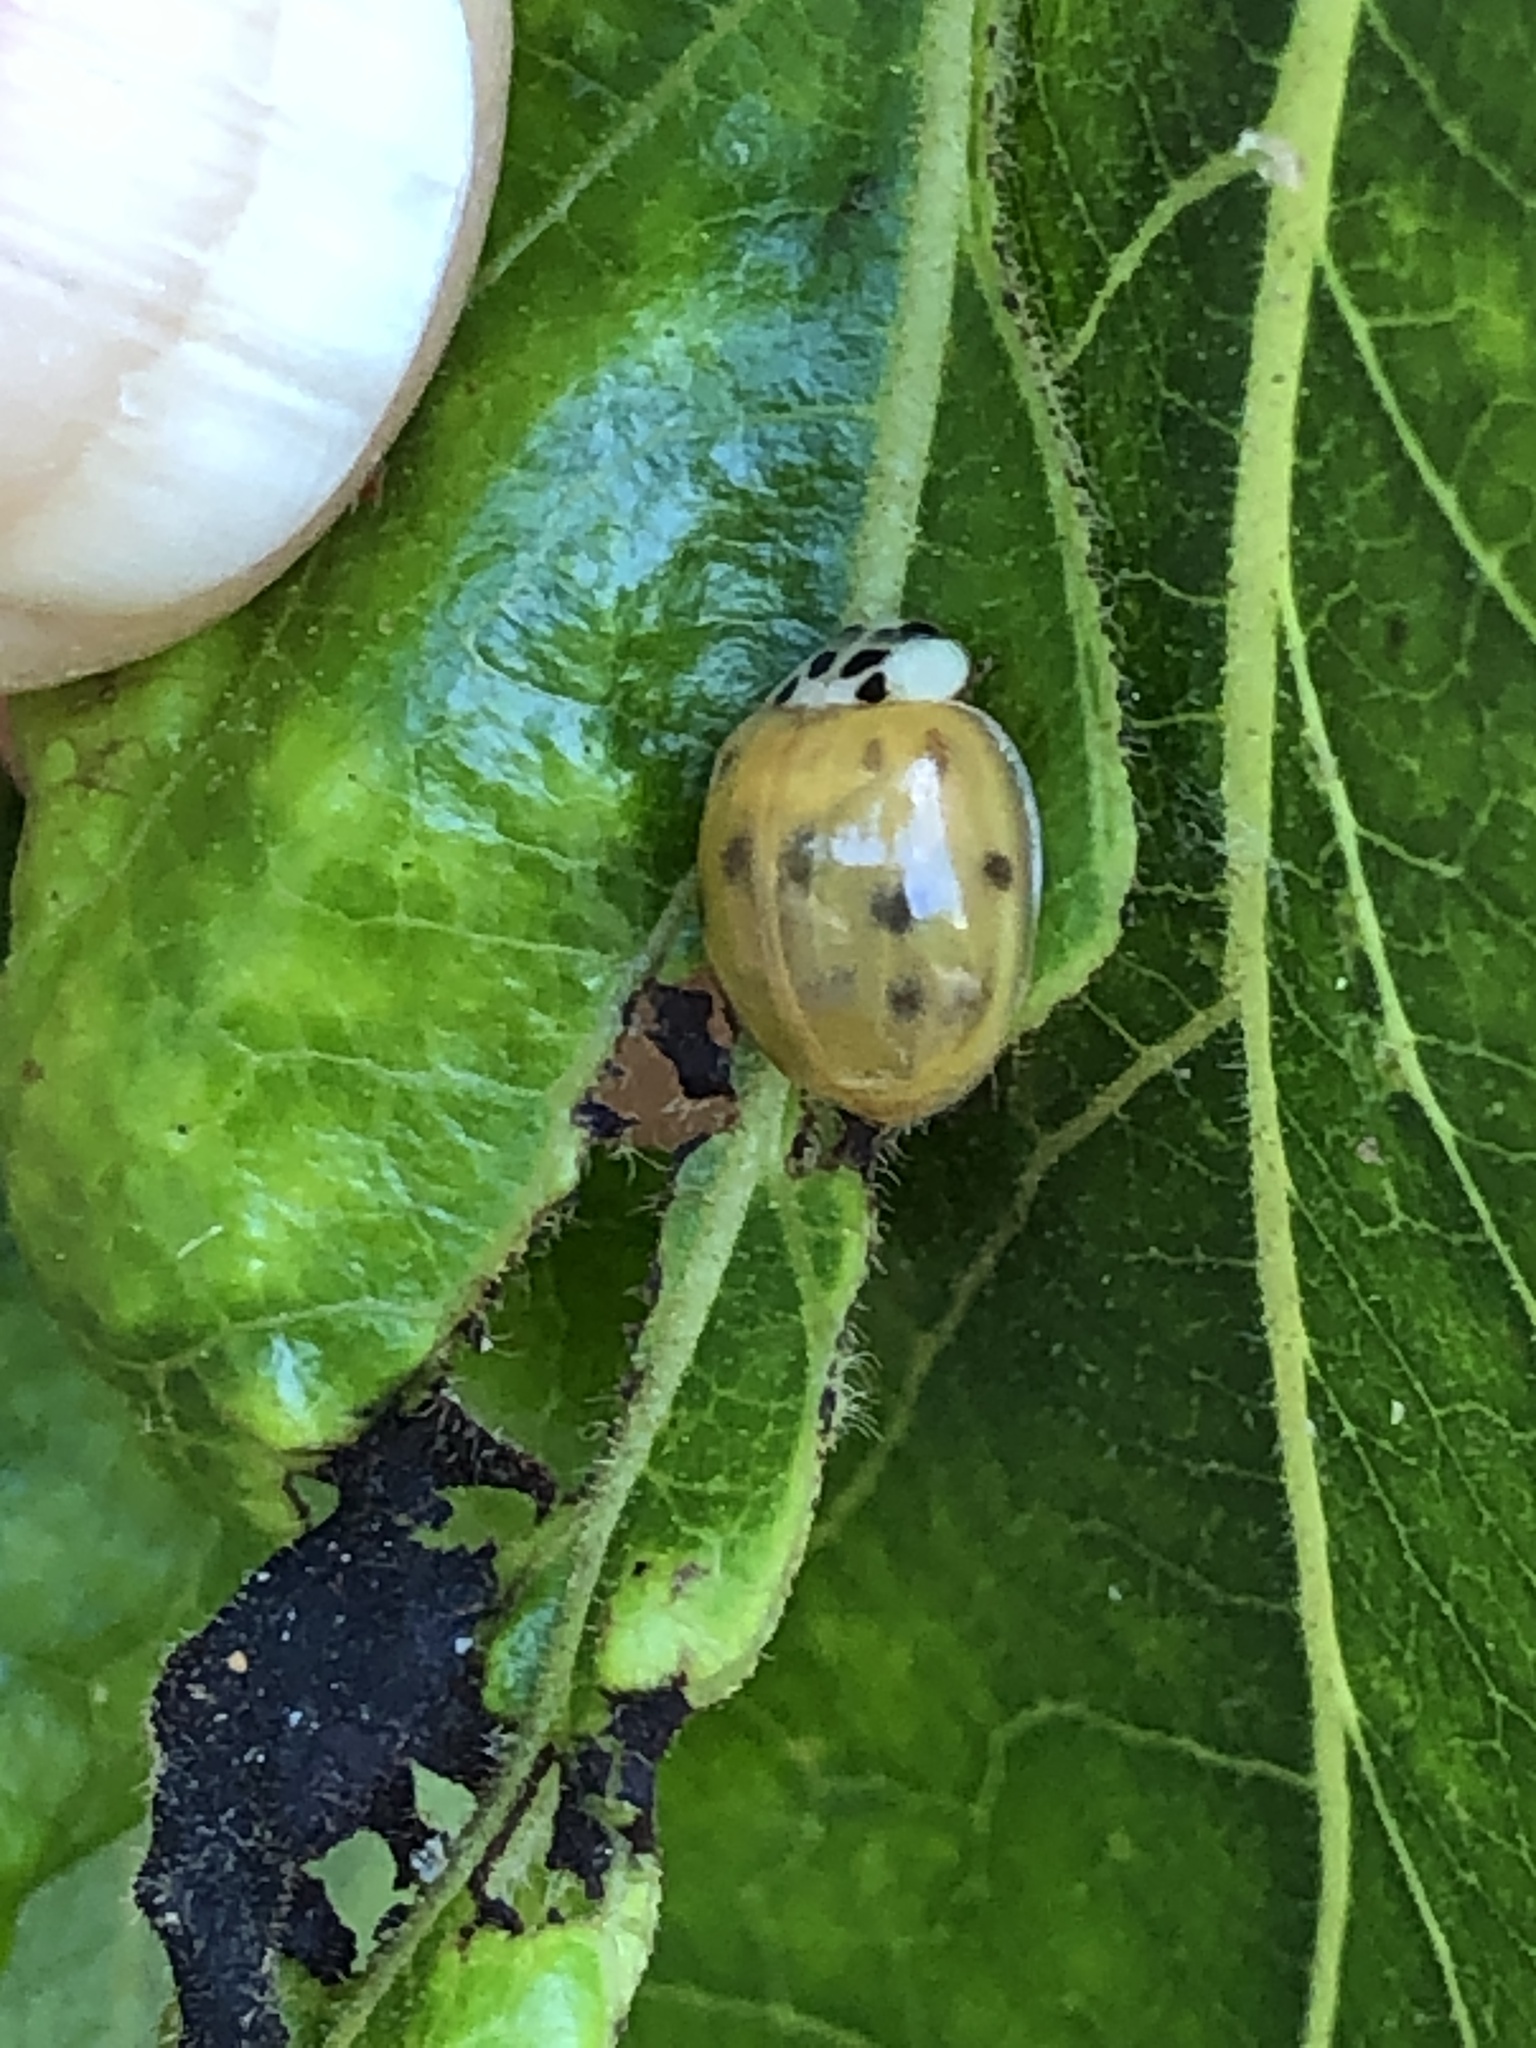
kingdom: Animalia
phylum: Arthropoda
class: Insecta
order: Coleoptera
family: Coccinellidae
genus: Harmonia
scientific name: Harmonia axyridis
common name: Harlequin ladybird
